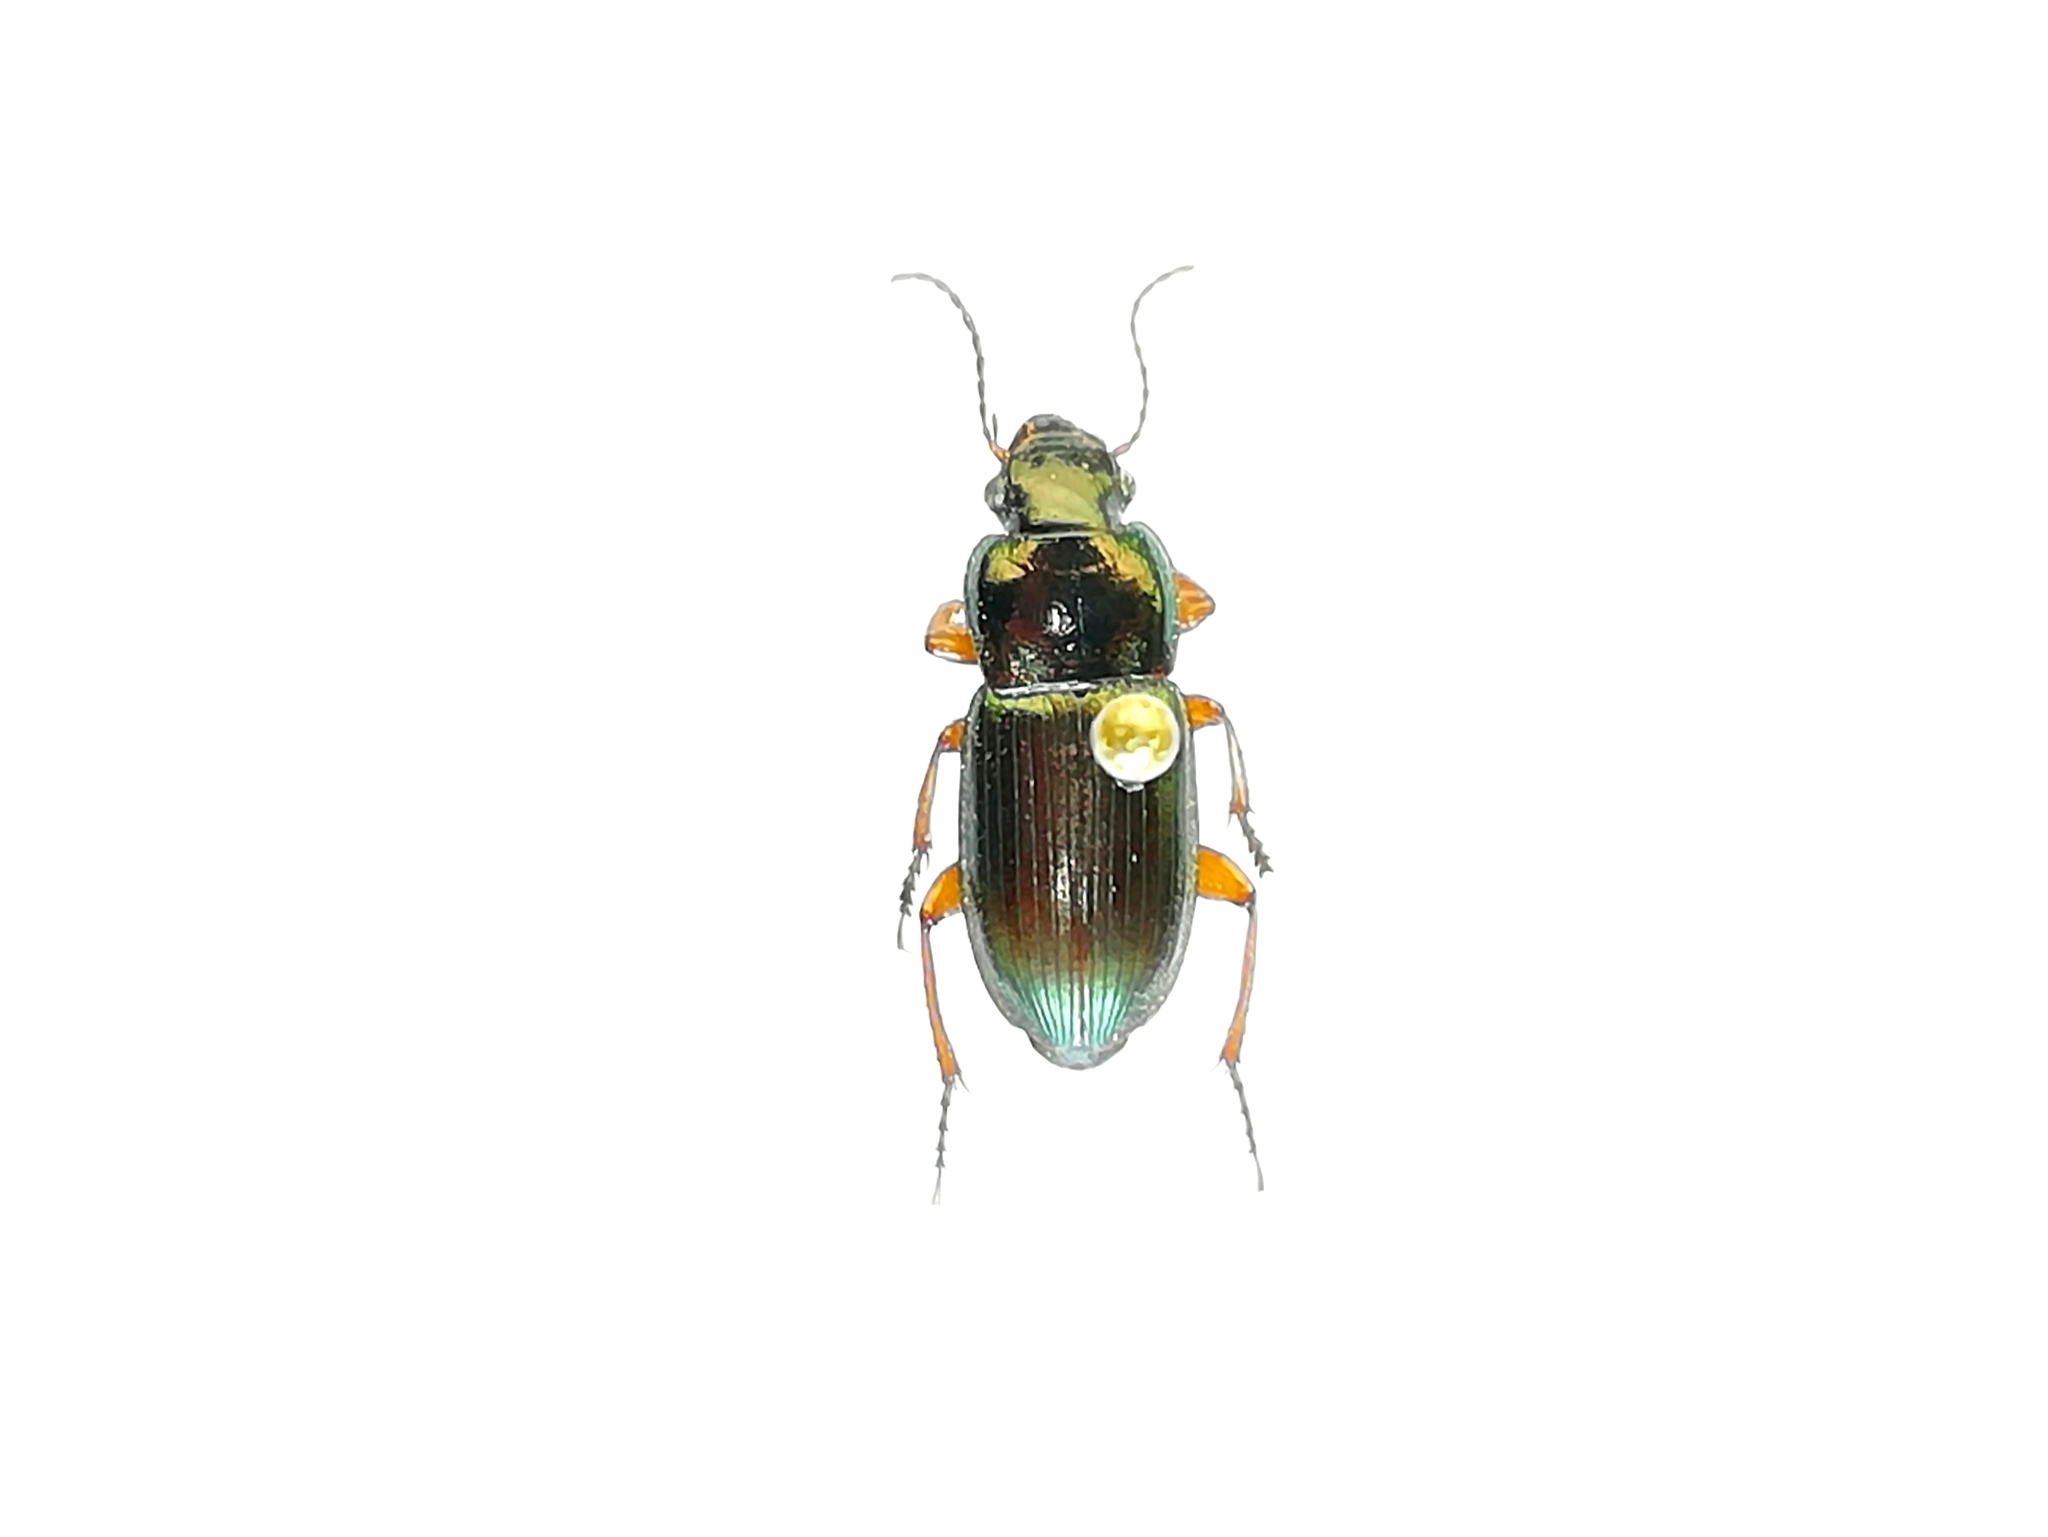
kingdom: Animalia
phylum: Arthropoda
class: Insecta
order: Coleoptera
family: Carabidae
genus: Harpalus
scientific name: Harpalus affinis
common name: Polychrome harp ground beetle
